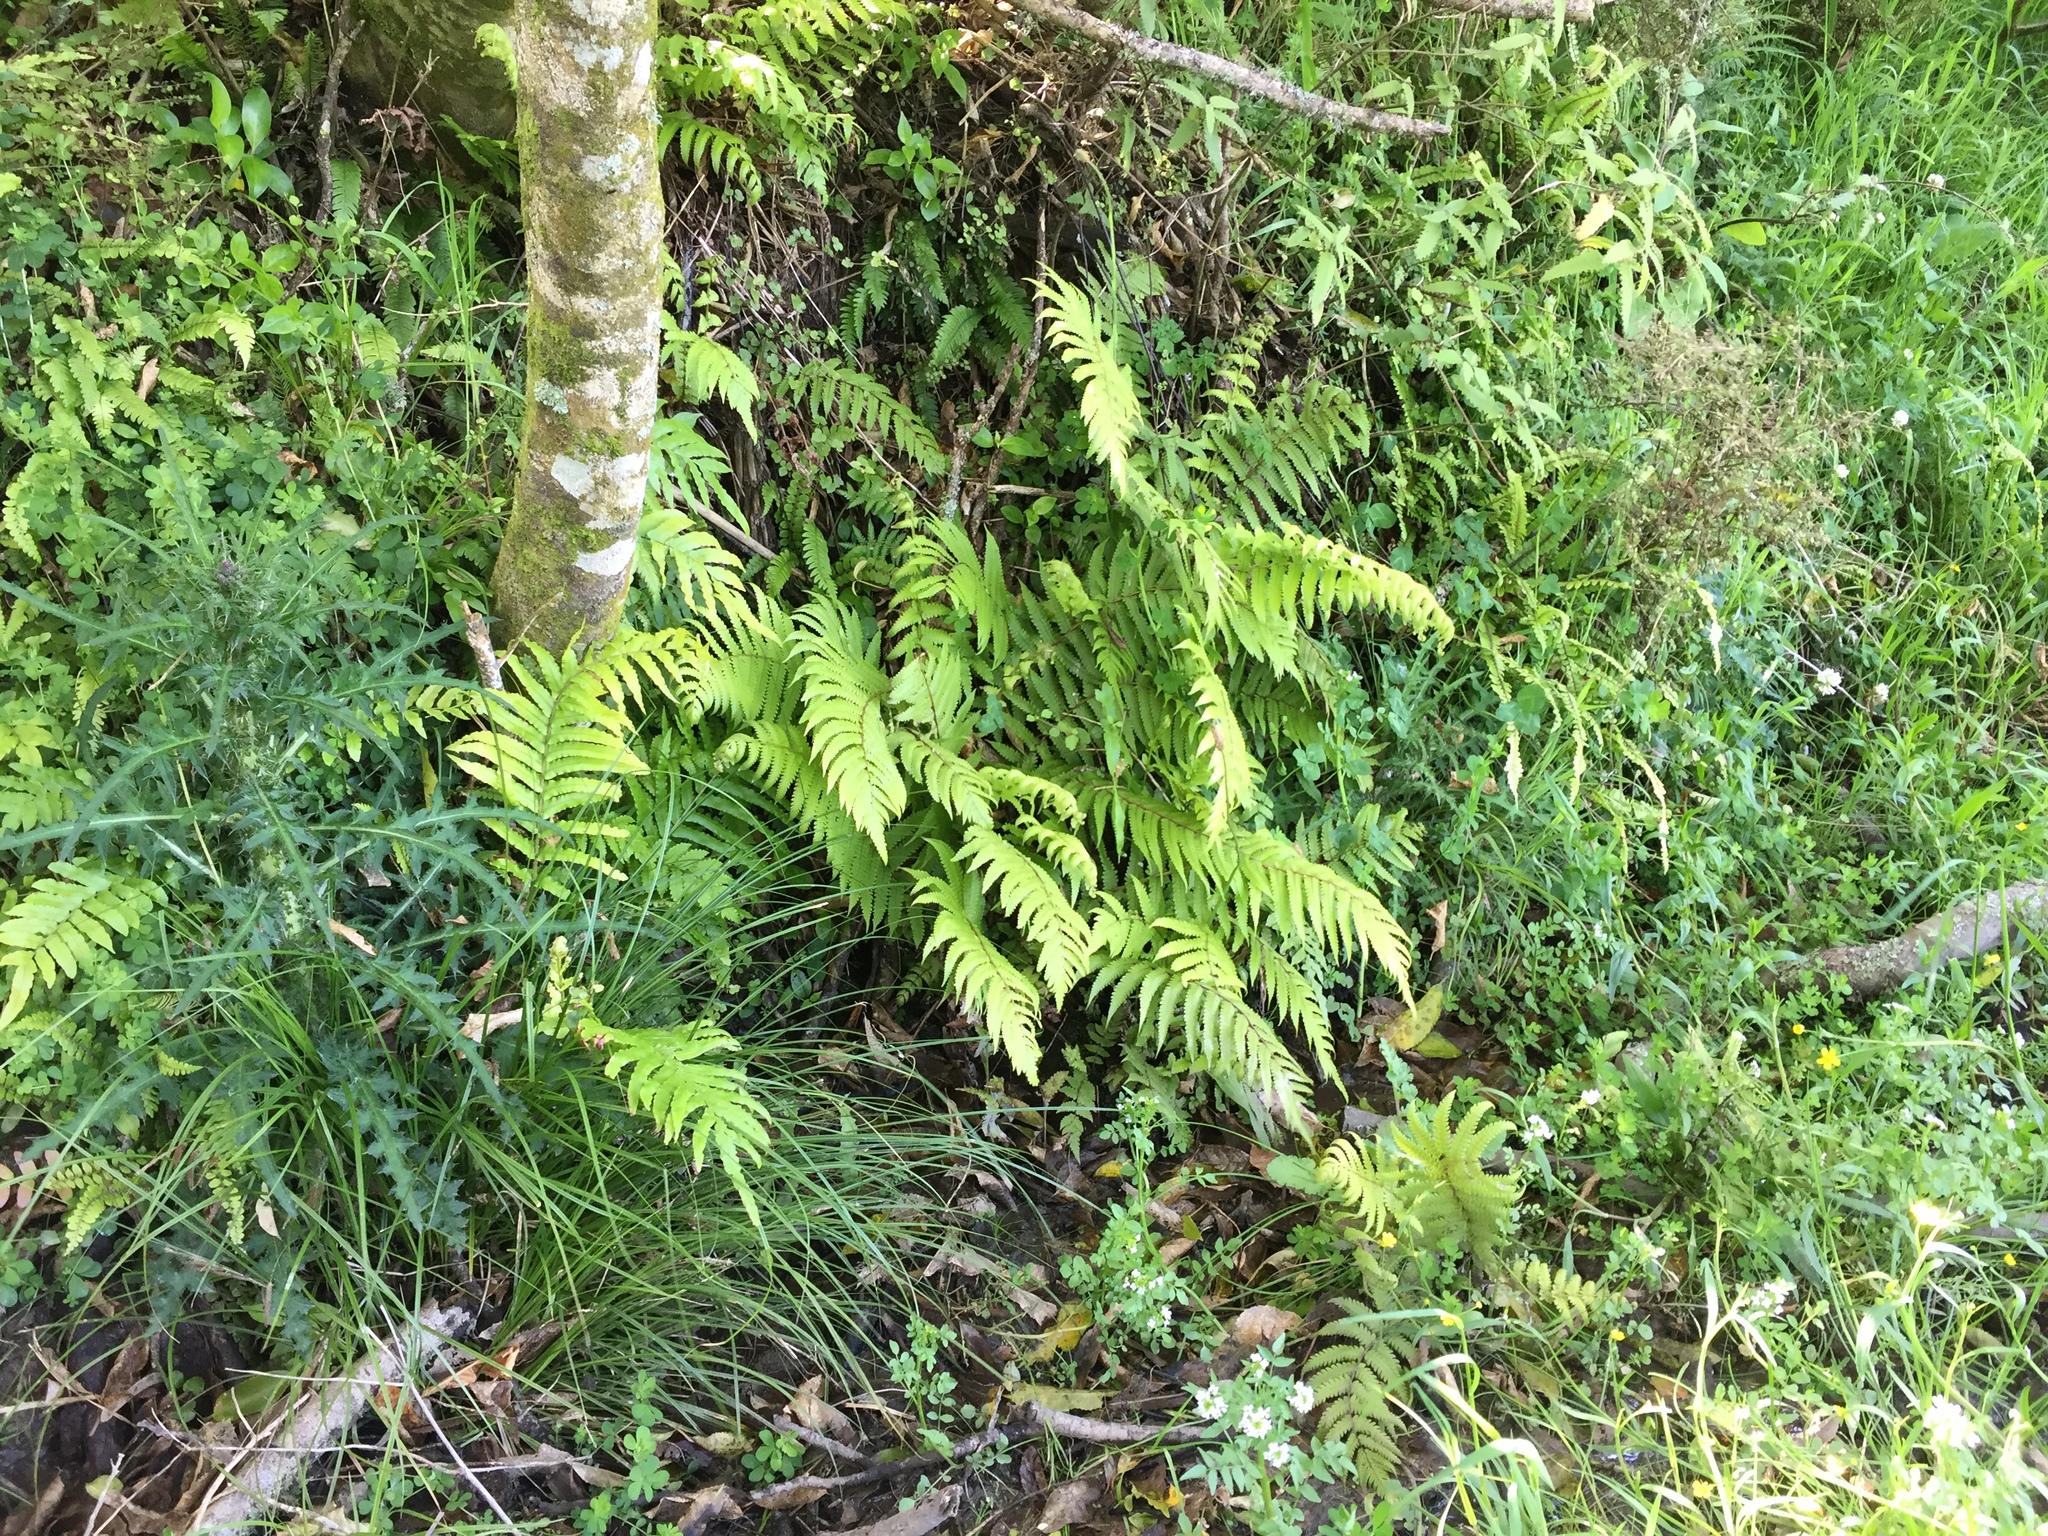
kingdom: Plantae
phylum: Tracheophyta
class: Polypodiopsida
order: Polypodiales
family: Thelypteridaceae
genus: Pakau
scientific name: Pakau pennigera
